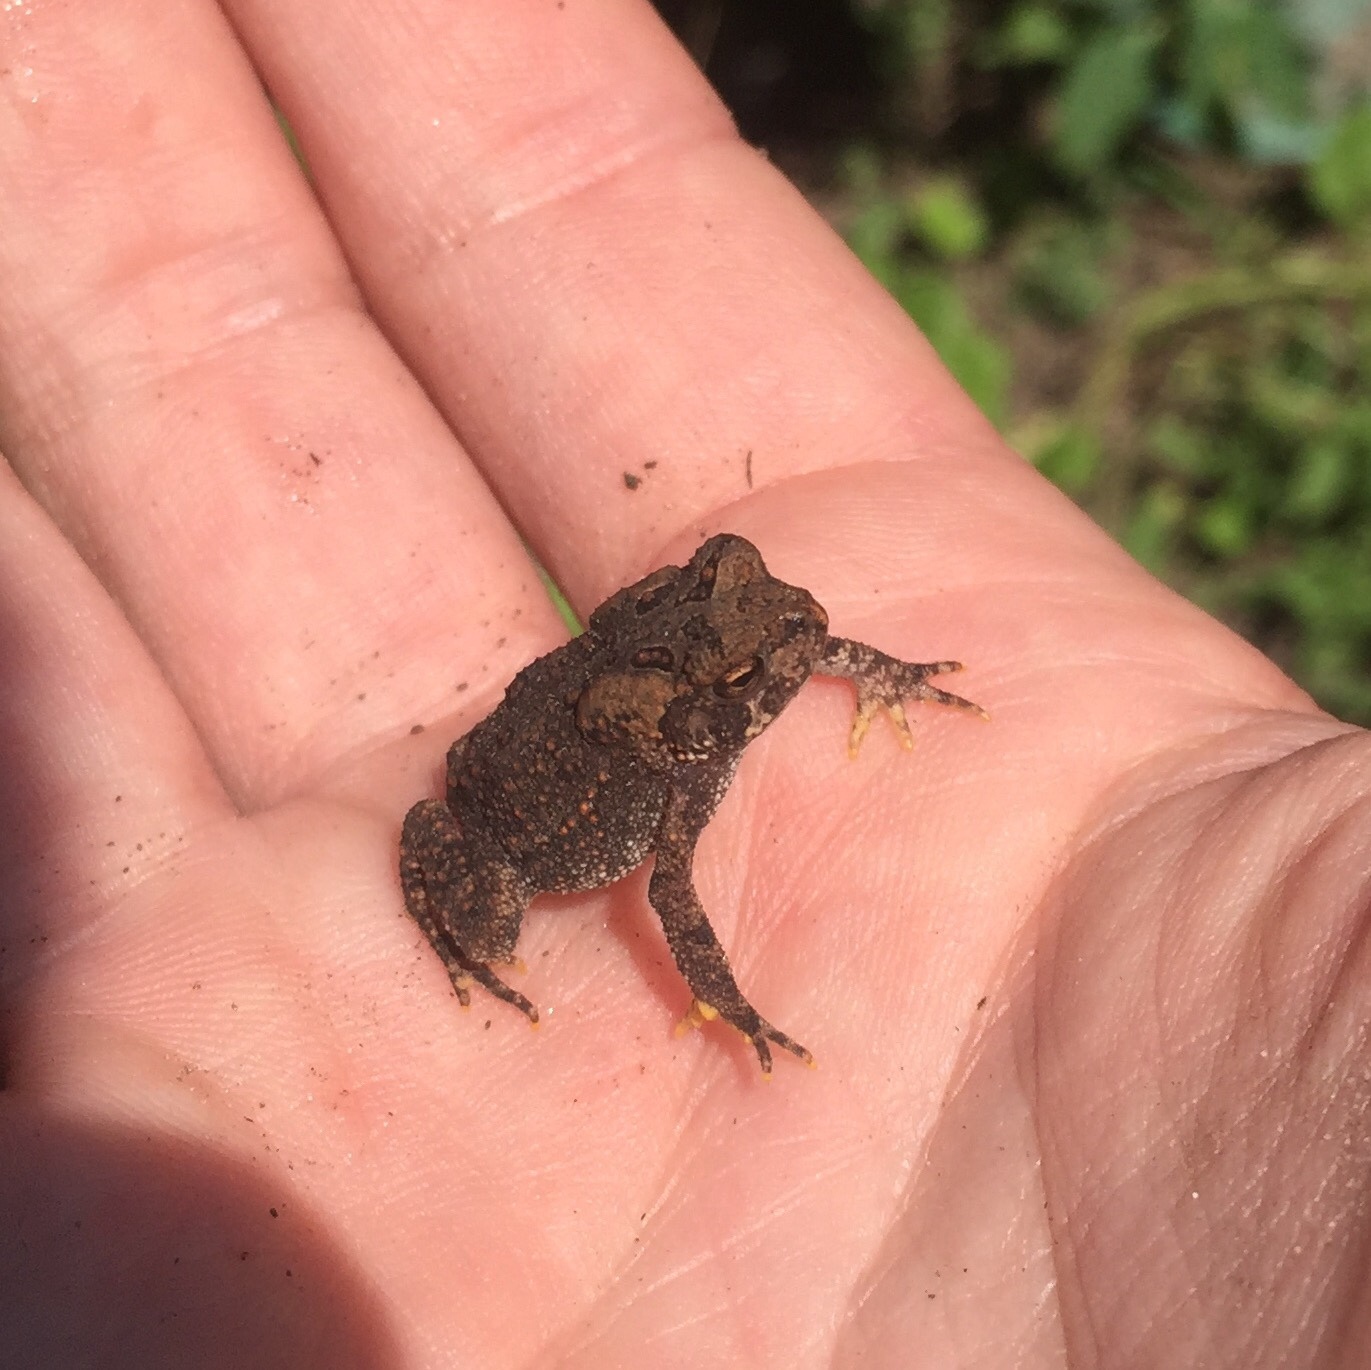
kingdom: Animalia
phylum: Chordata
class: Amphibia
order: Anura
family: Bufonidae
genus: Anaxyrus
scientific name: Anaxyrus americanus
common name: American toad
